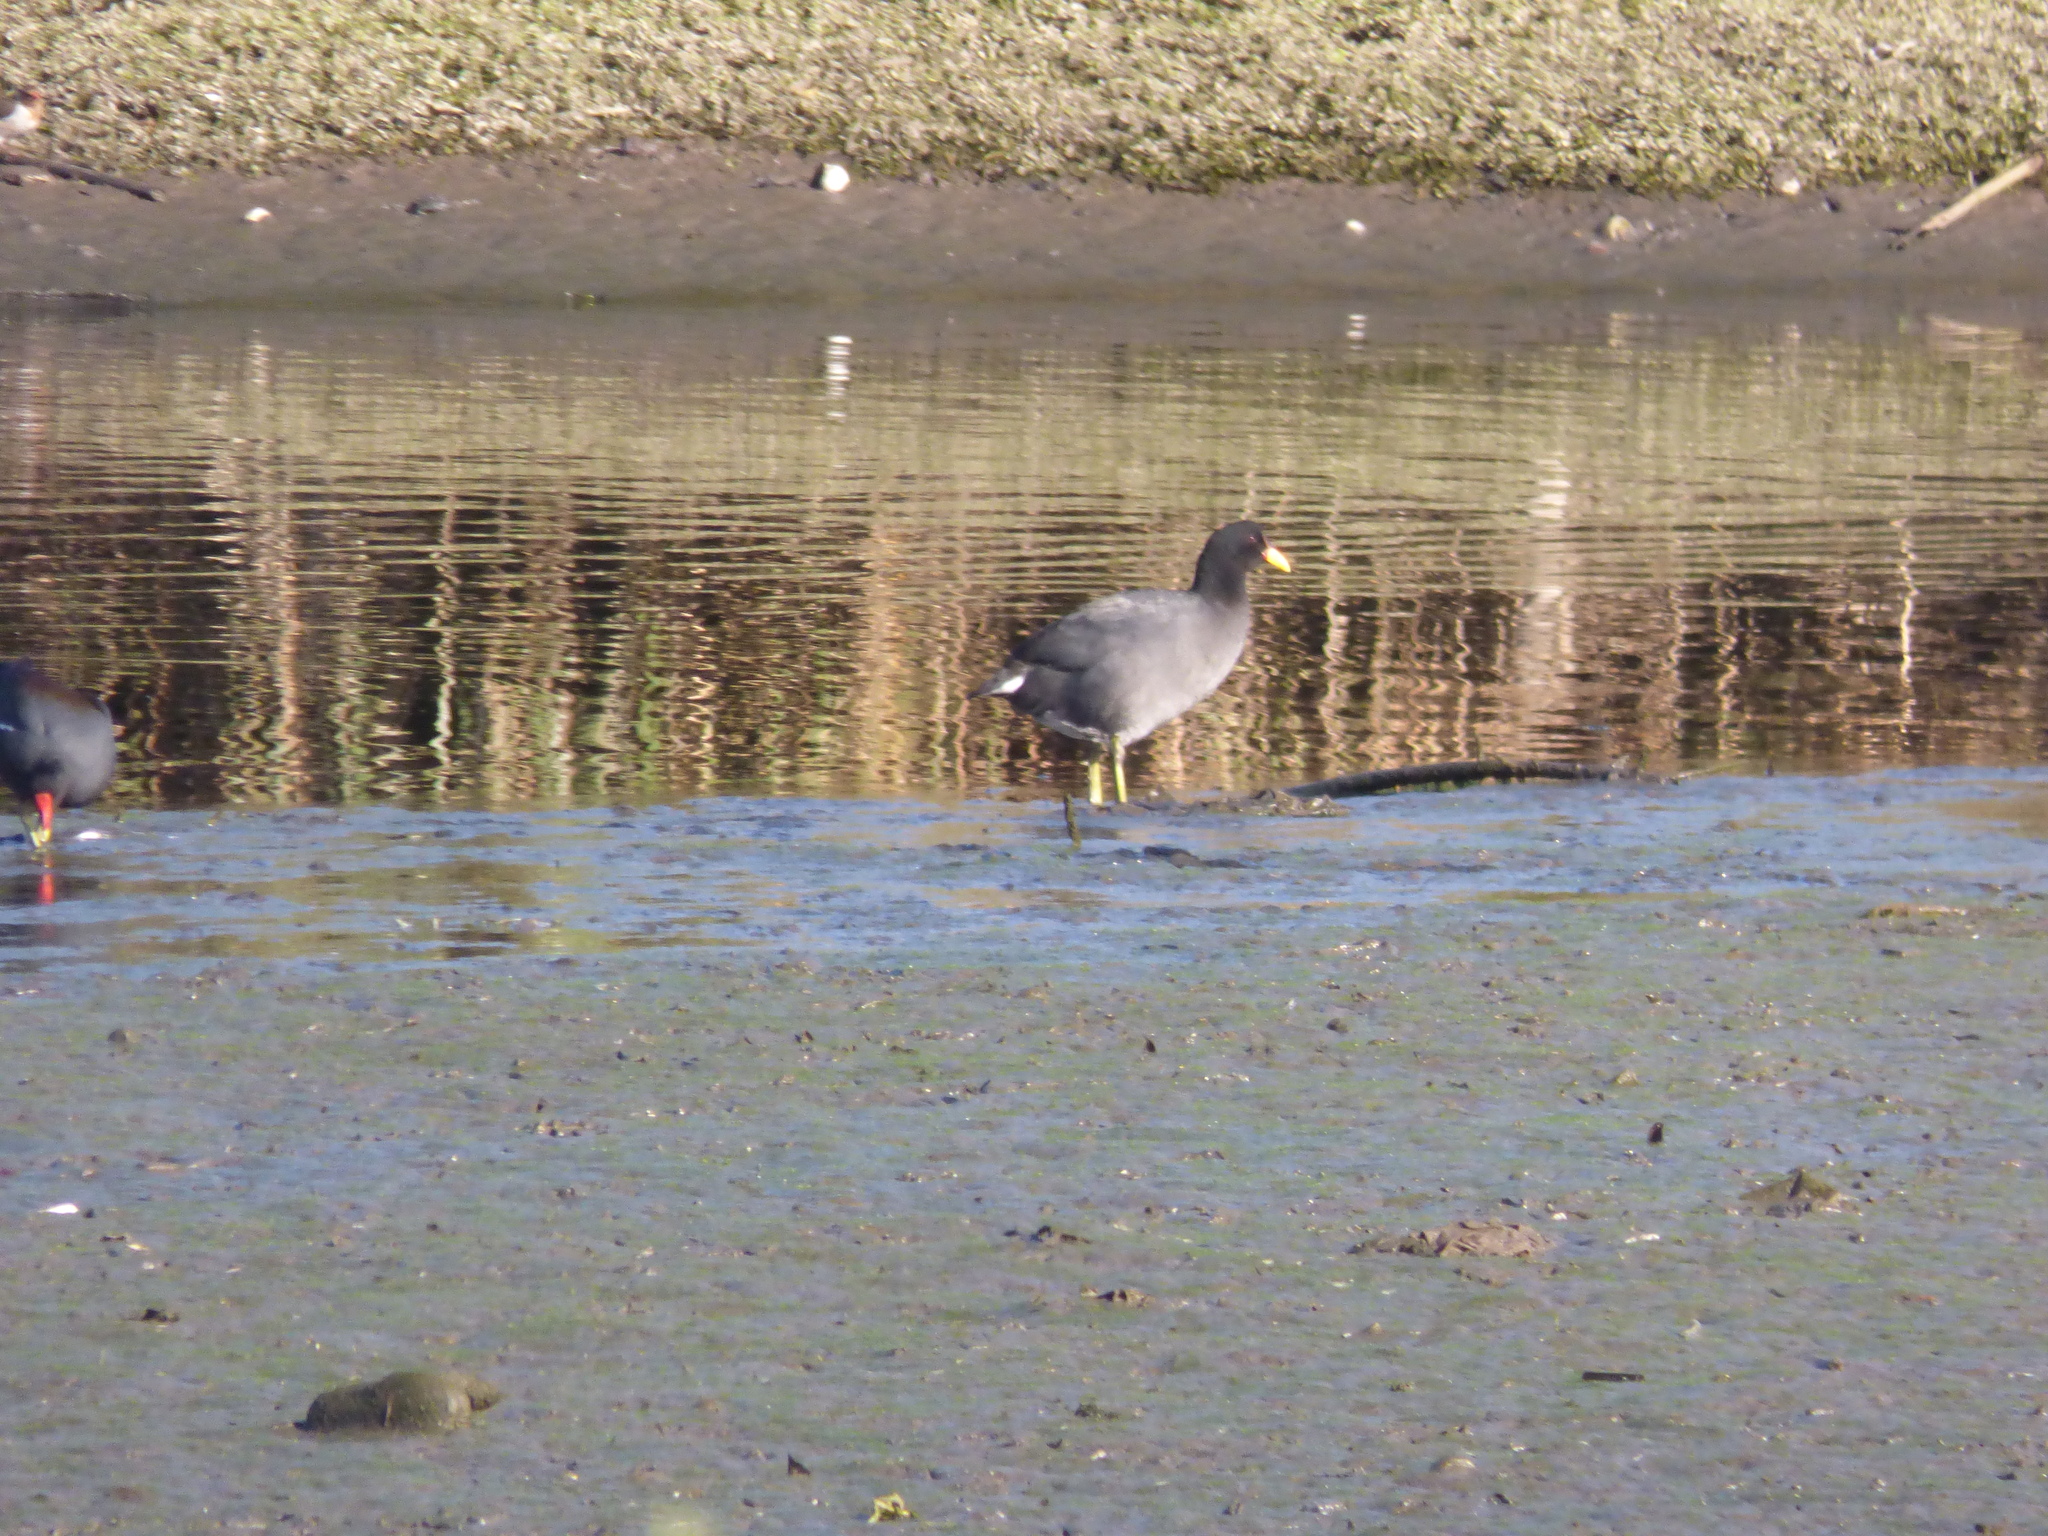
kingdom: Animalia
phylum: Chordata
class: Aves
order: Gruiformes
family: Rallidae
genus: Fulica
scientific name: Fulica rufifrons
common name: Red-fronted coot
